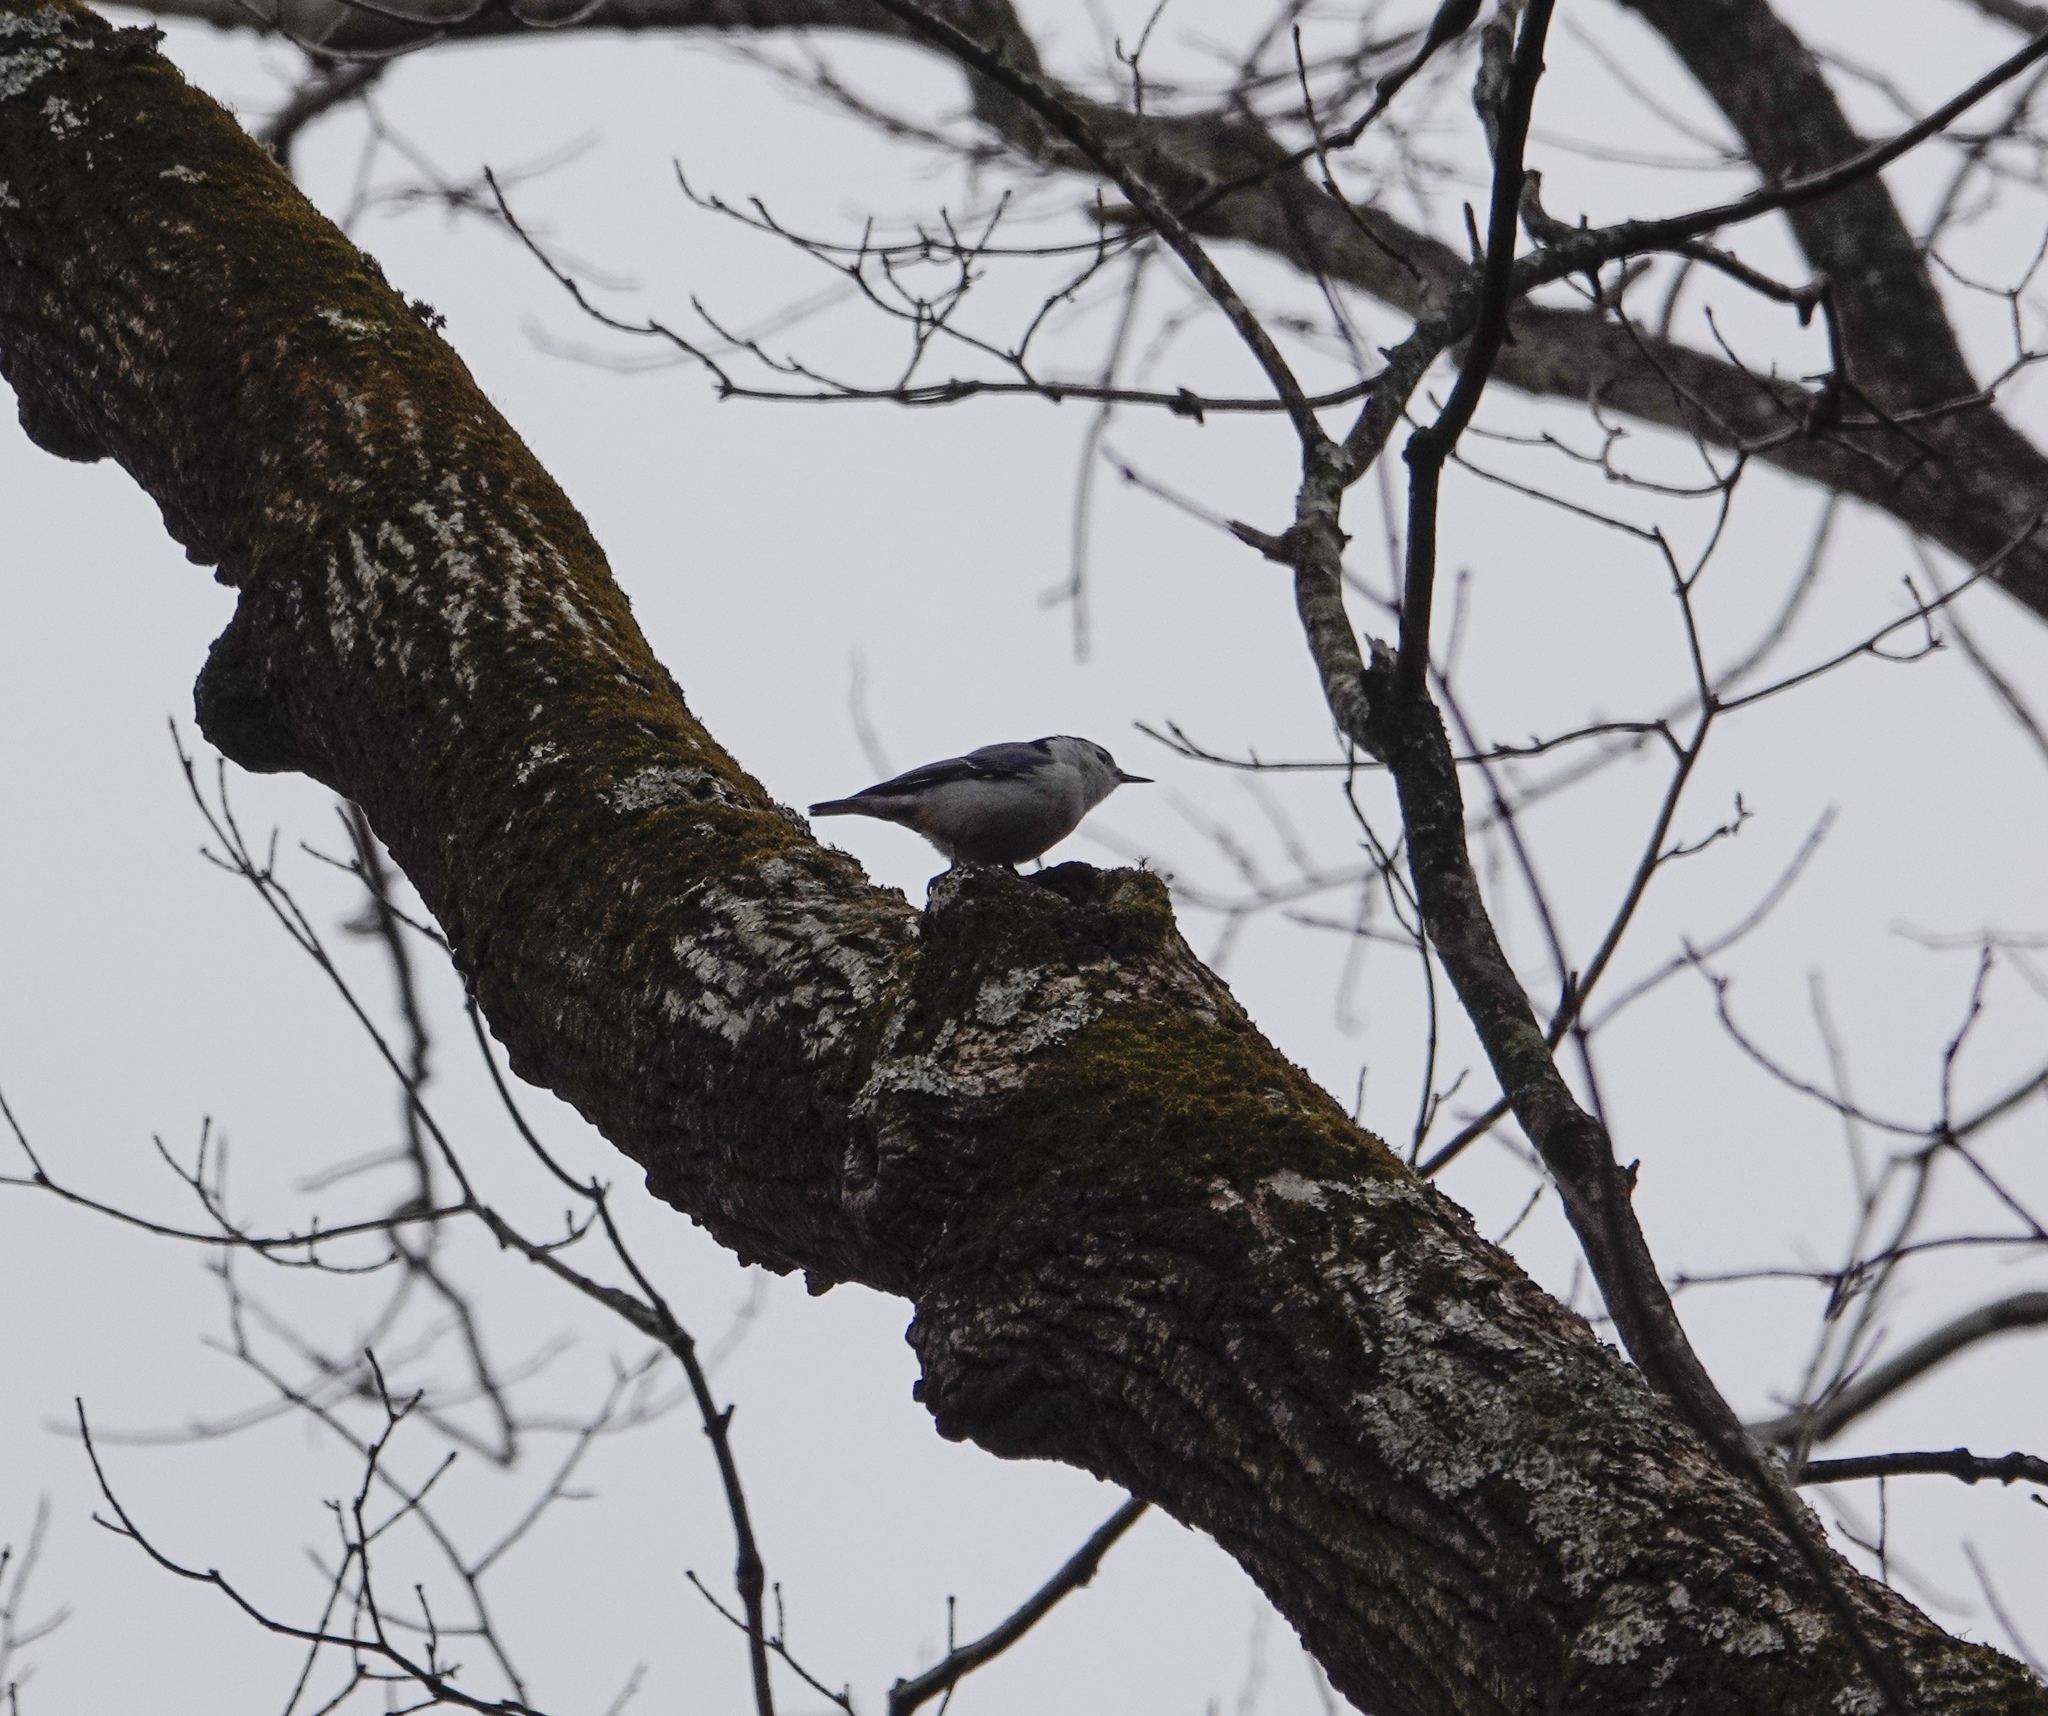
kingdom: Animalia
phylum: Chordata
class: Aves
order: Passeriformes
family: Sittidae
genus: Sitta
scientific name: Sitta carolinensis
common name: White-breasted nuthatch
